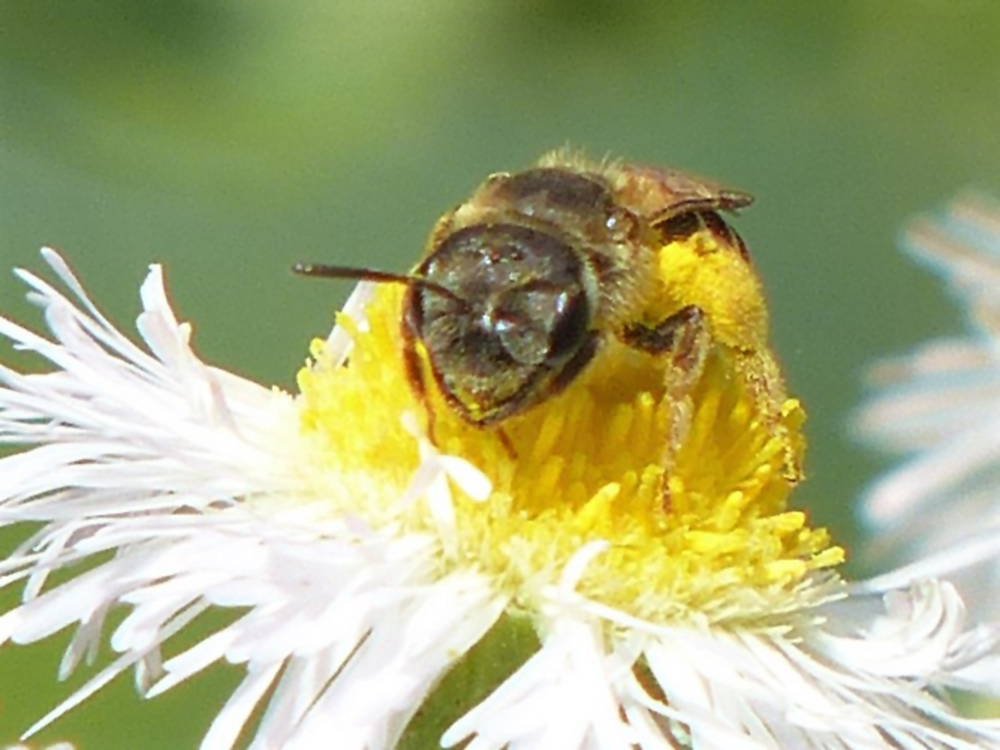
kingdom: Animalia
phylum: Arthropoda
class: Insecta
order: Hymenoptera
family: Halictidae
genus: Halictus
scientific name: Halictus ligatus
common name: Ligated furrow bee
